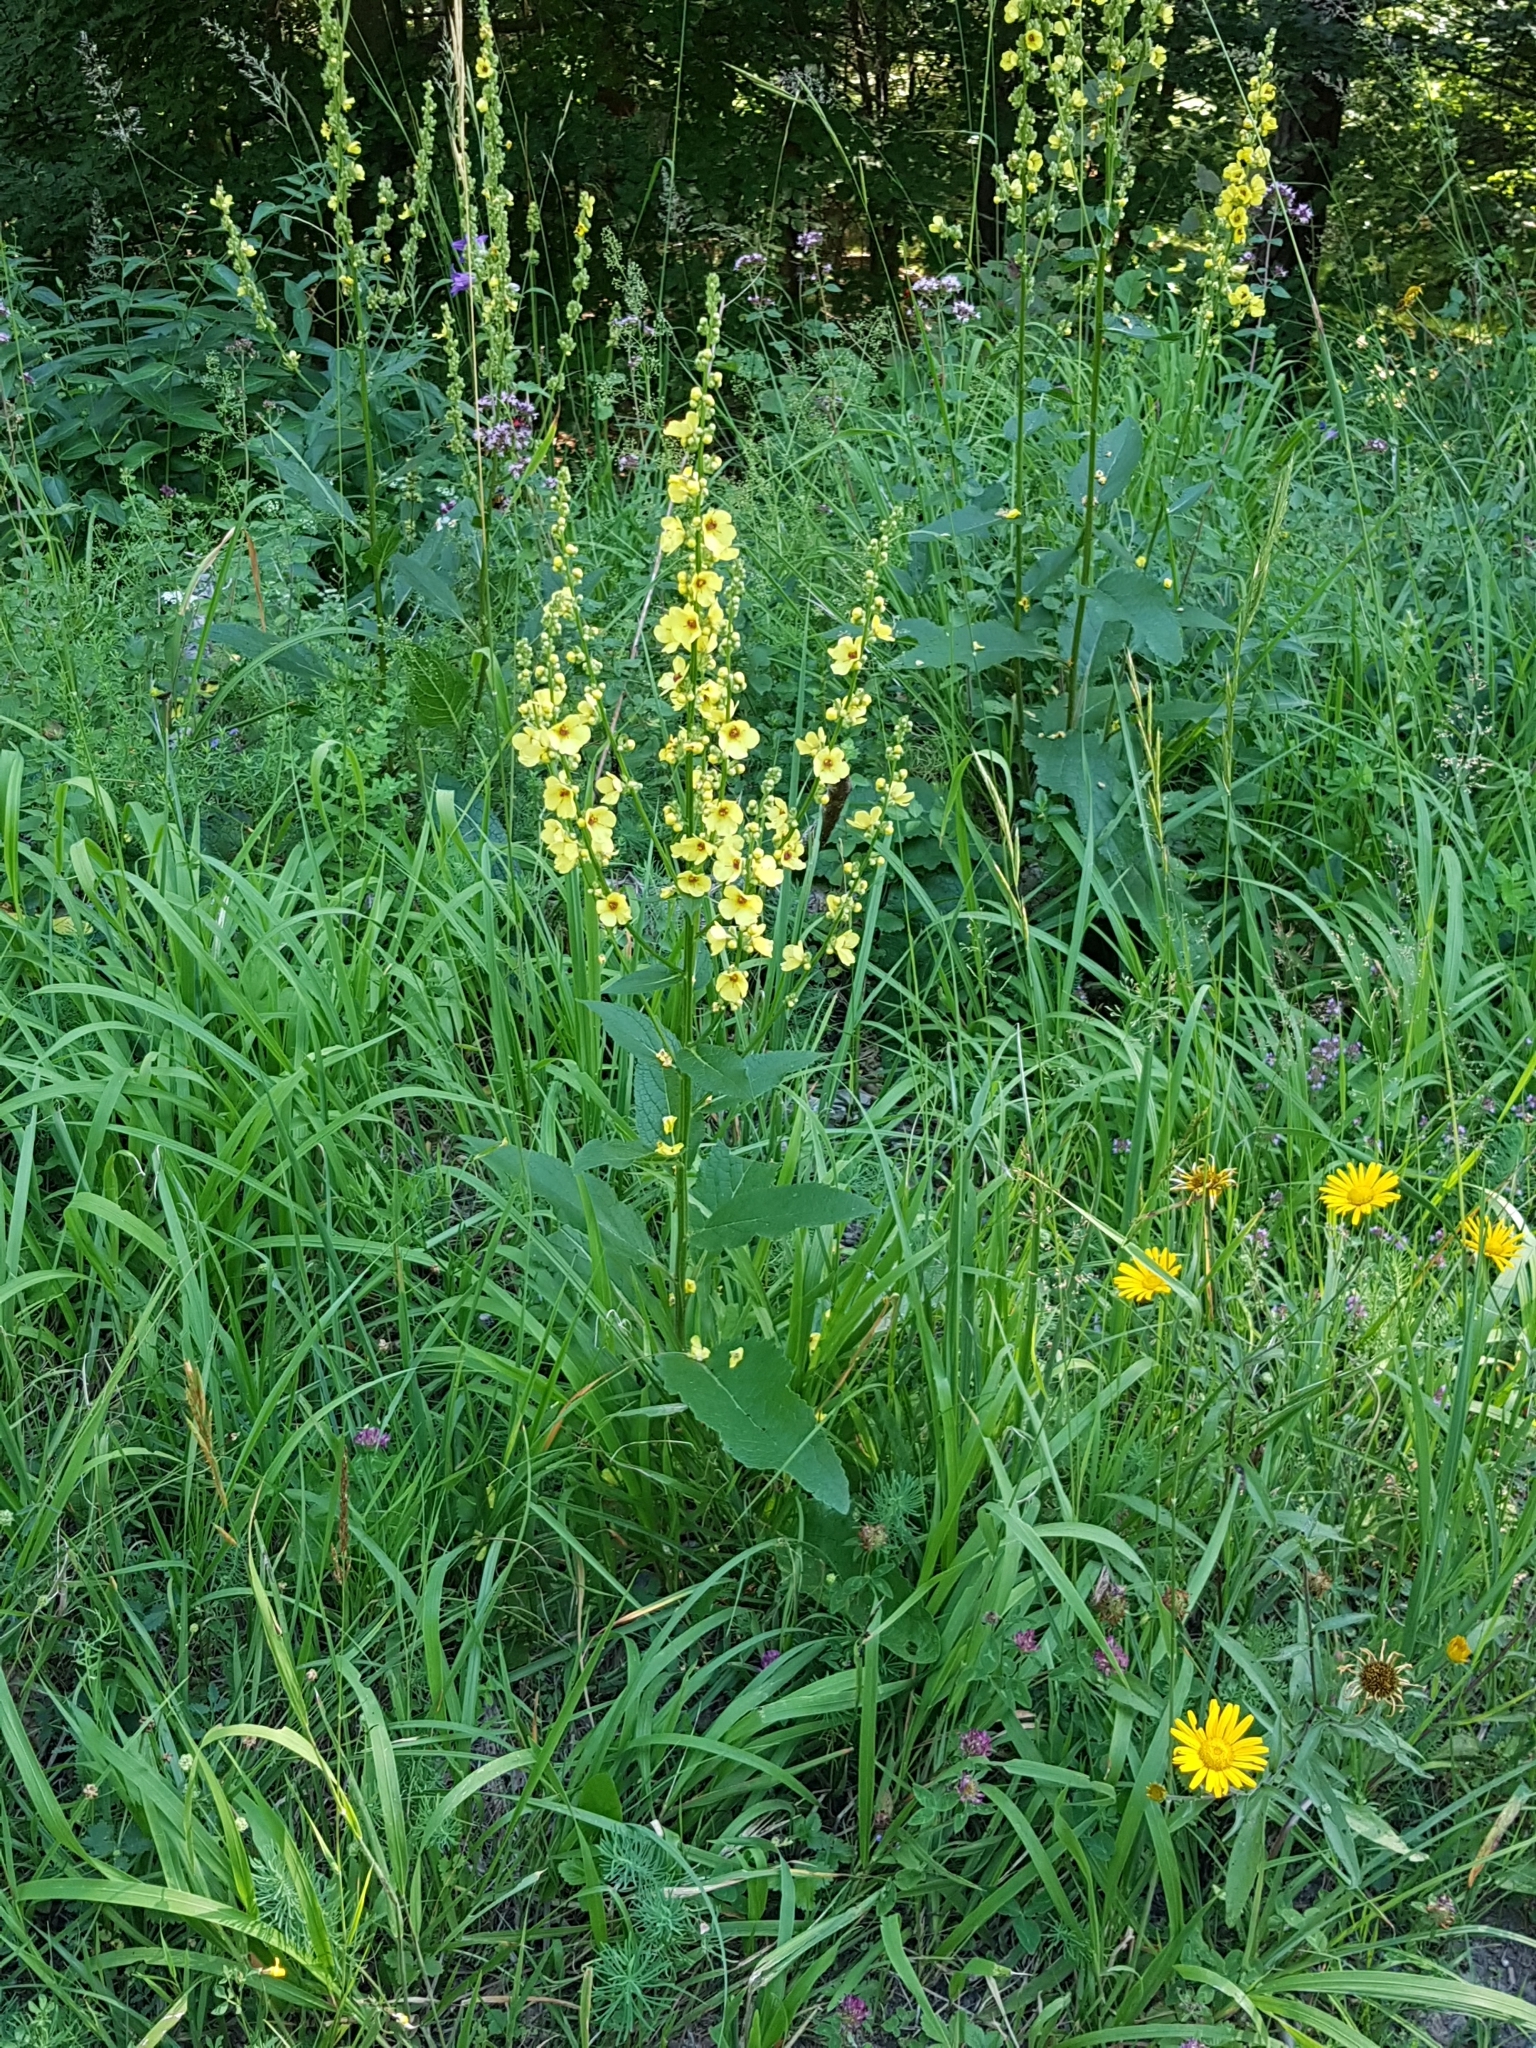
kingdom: Plantae
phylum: Tracheophyta
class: Magnoliopsida
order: Lamiales
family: Scrophulariaceae
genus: Verbascum
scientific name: Verbascum chaixii
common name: Nettle-leaved mullein
